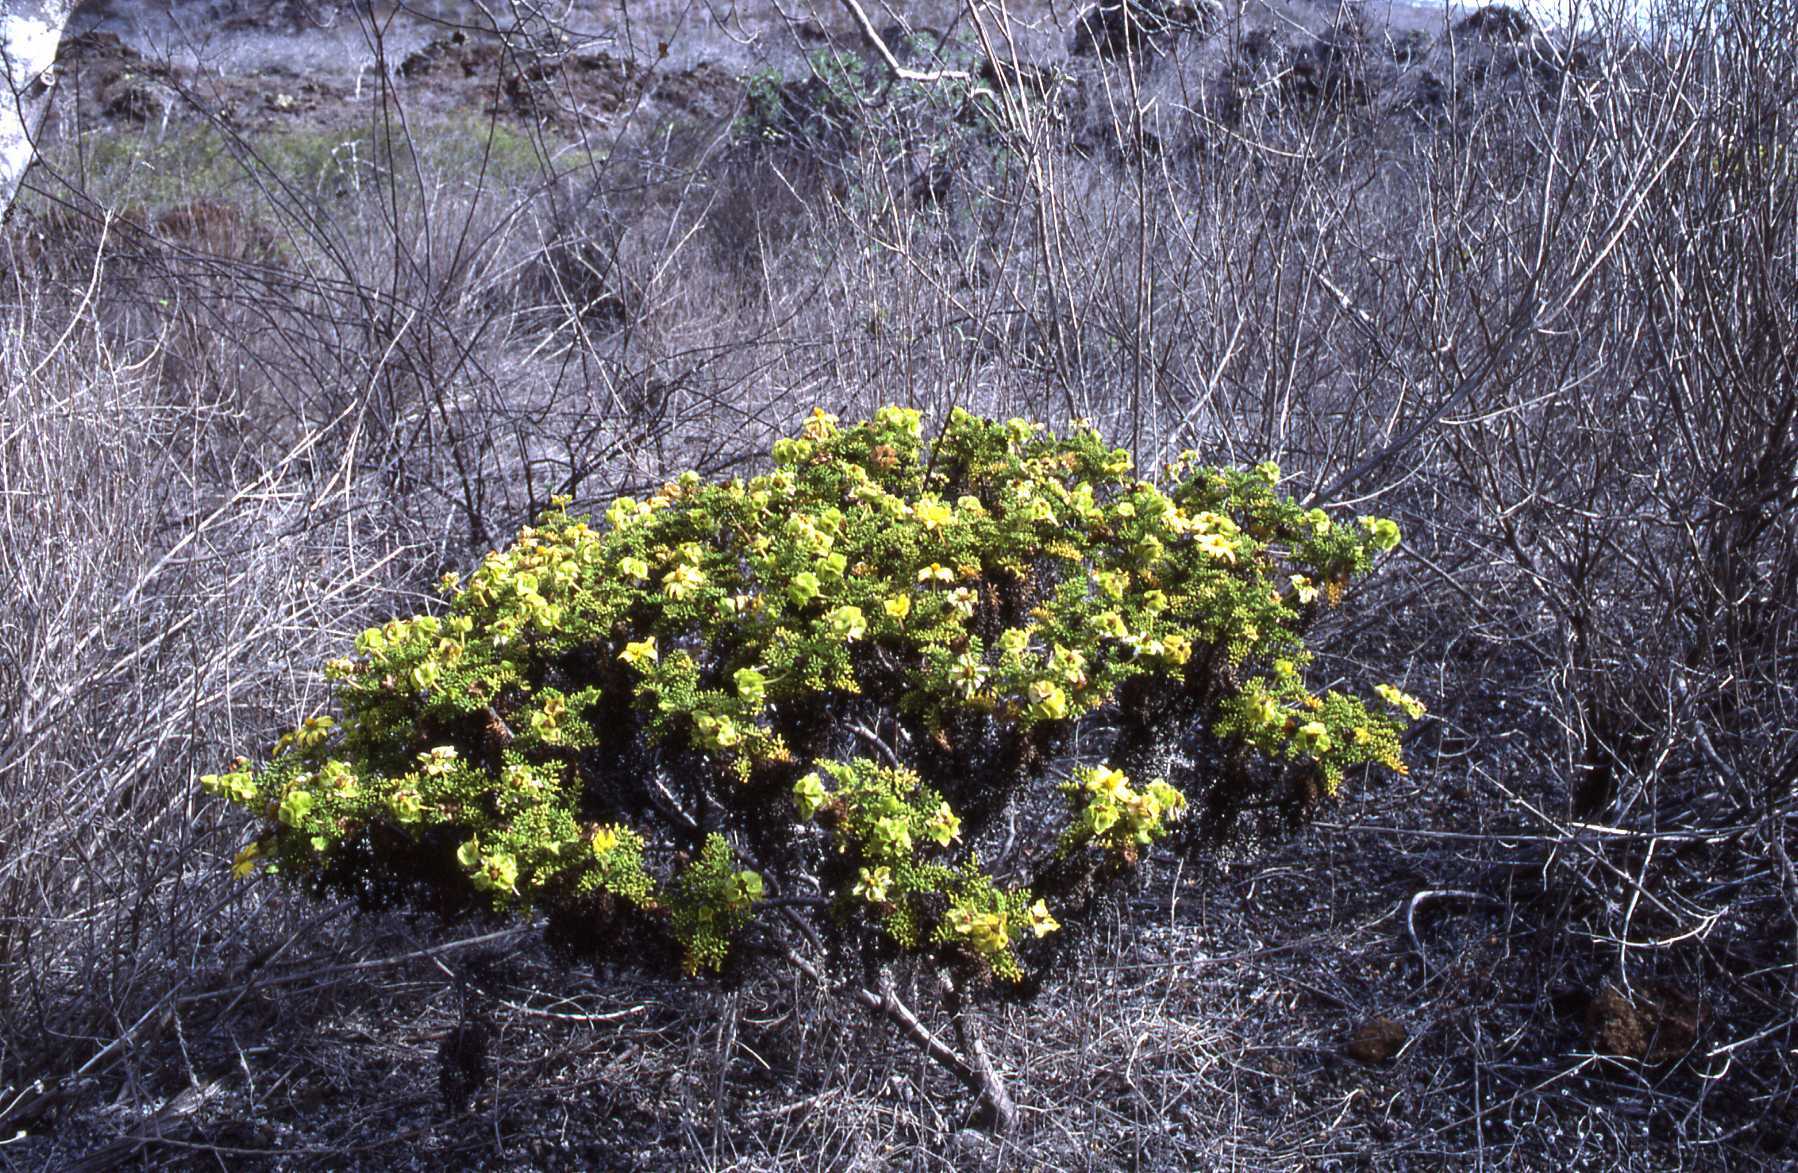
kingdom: Plantae
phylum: Tracheophyta
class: Magnoliopsida
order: Asterales
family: Asteraceae
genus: Lecocarpus
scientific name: Lecocarpus pinnatifidus
